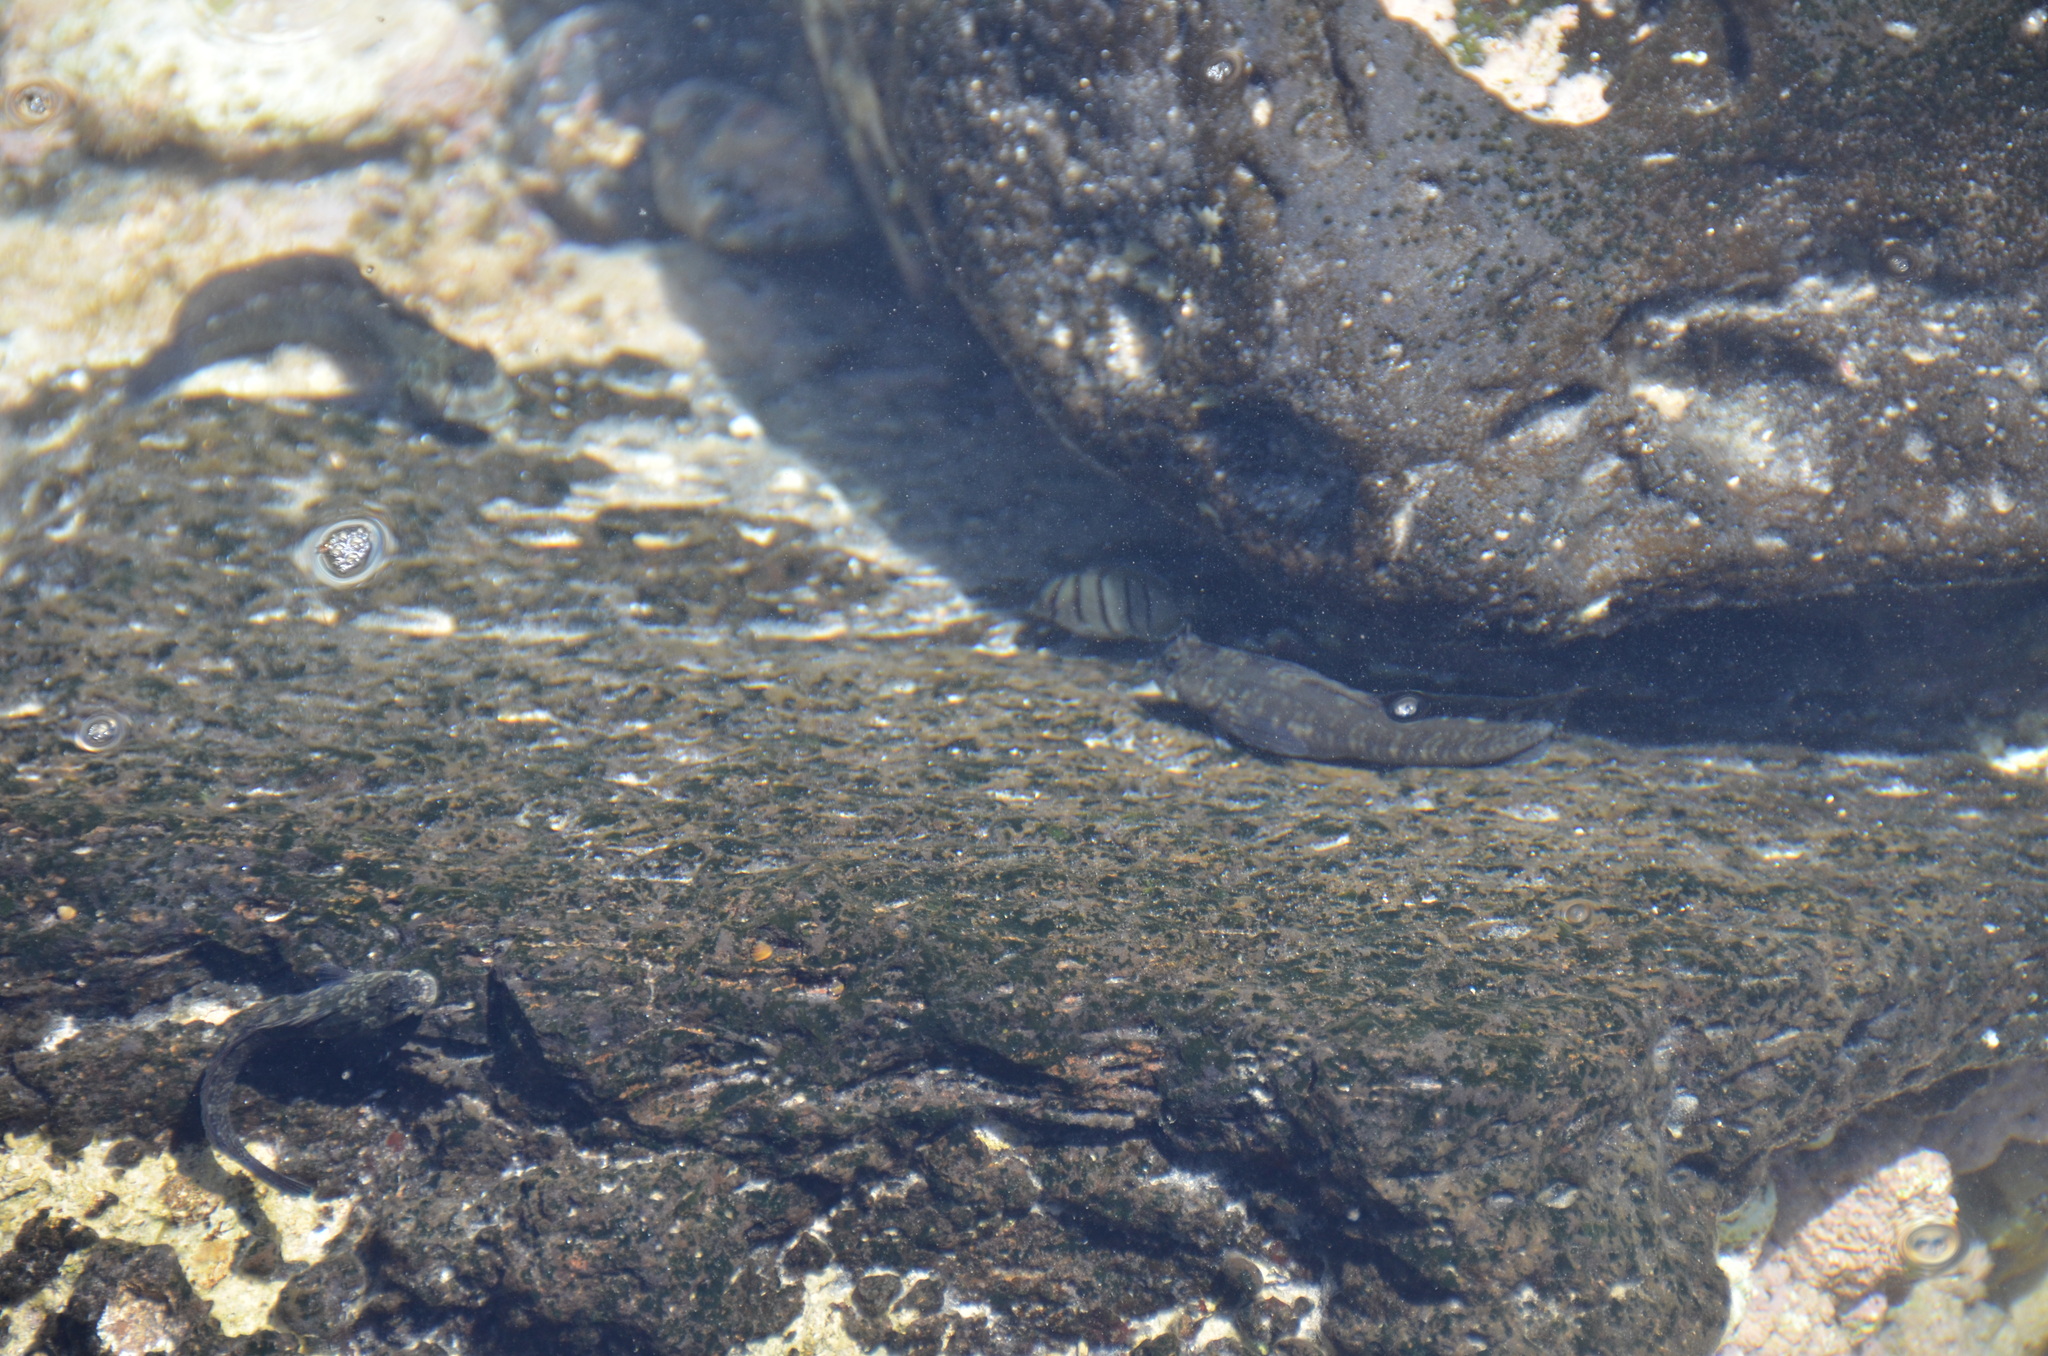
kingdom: Animalia
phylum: Chordata
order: Perciformes
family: Acanthuridae
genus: Acanthurus
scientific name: Acanthurus triostegus
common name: Convict surgeonfish
